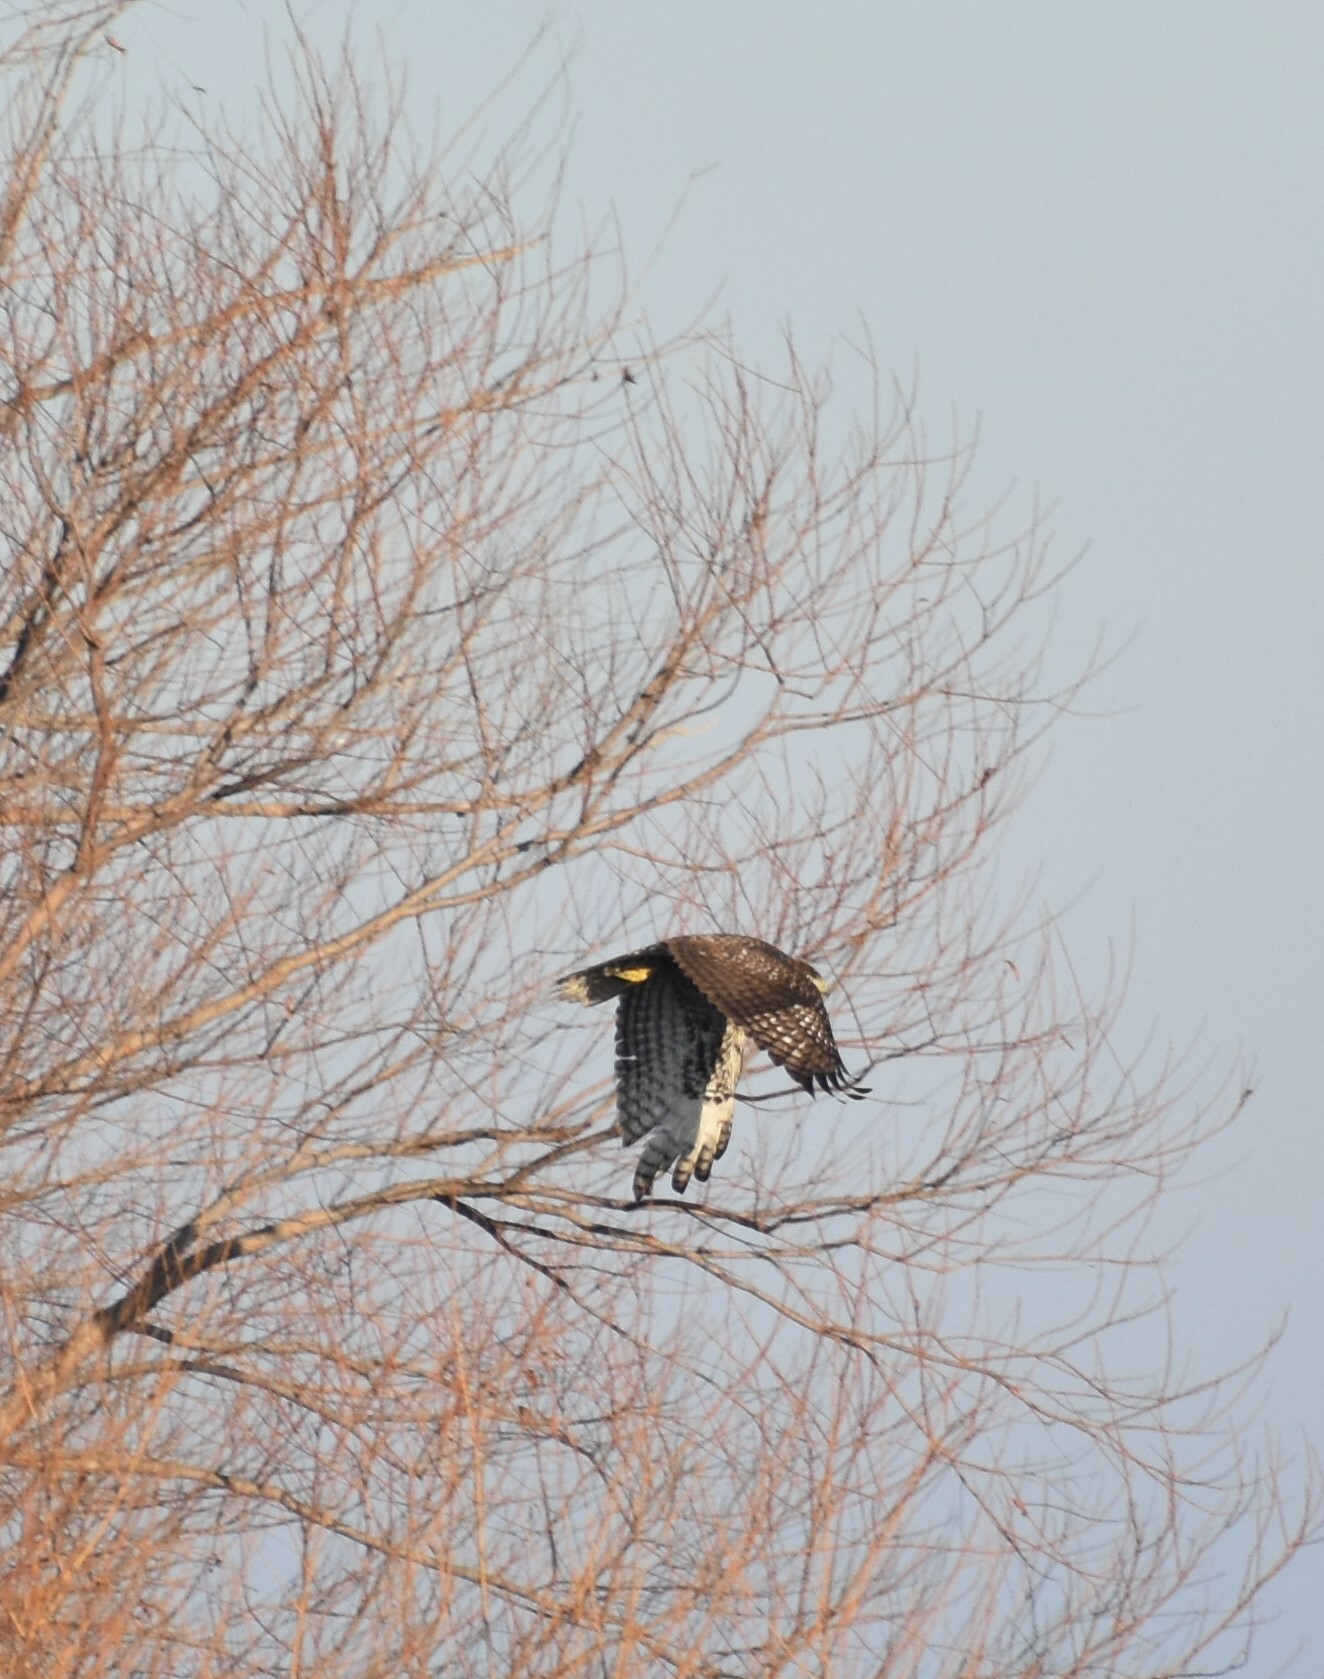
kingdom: Animalia
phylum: Chordata
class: Aves
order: Accipitriformes
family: Accipitridae
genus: Buteo
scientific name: Buteo lineatus
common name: Red-shouldered hawk
